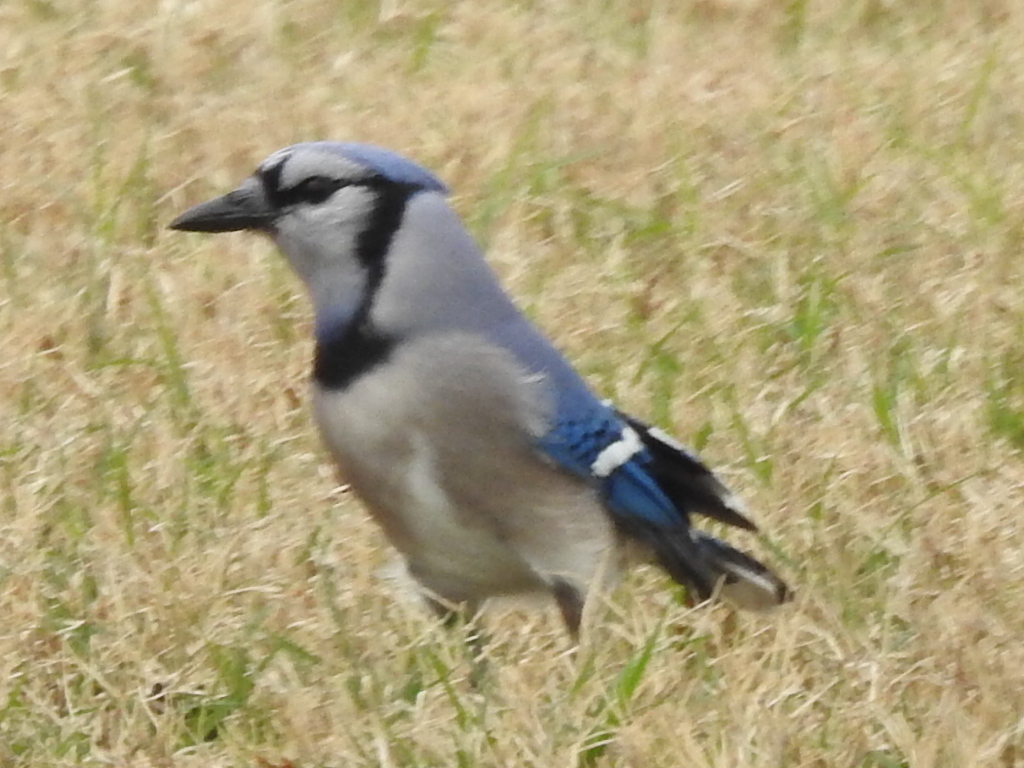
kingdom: Animalia
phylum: Chordata
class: Aves
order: Passeriformes
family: Corvidae
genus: Cyanocitta
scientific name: Cyanocitta cristata
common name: Blue jay
